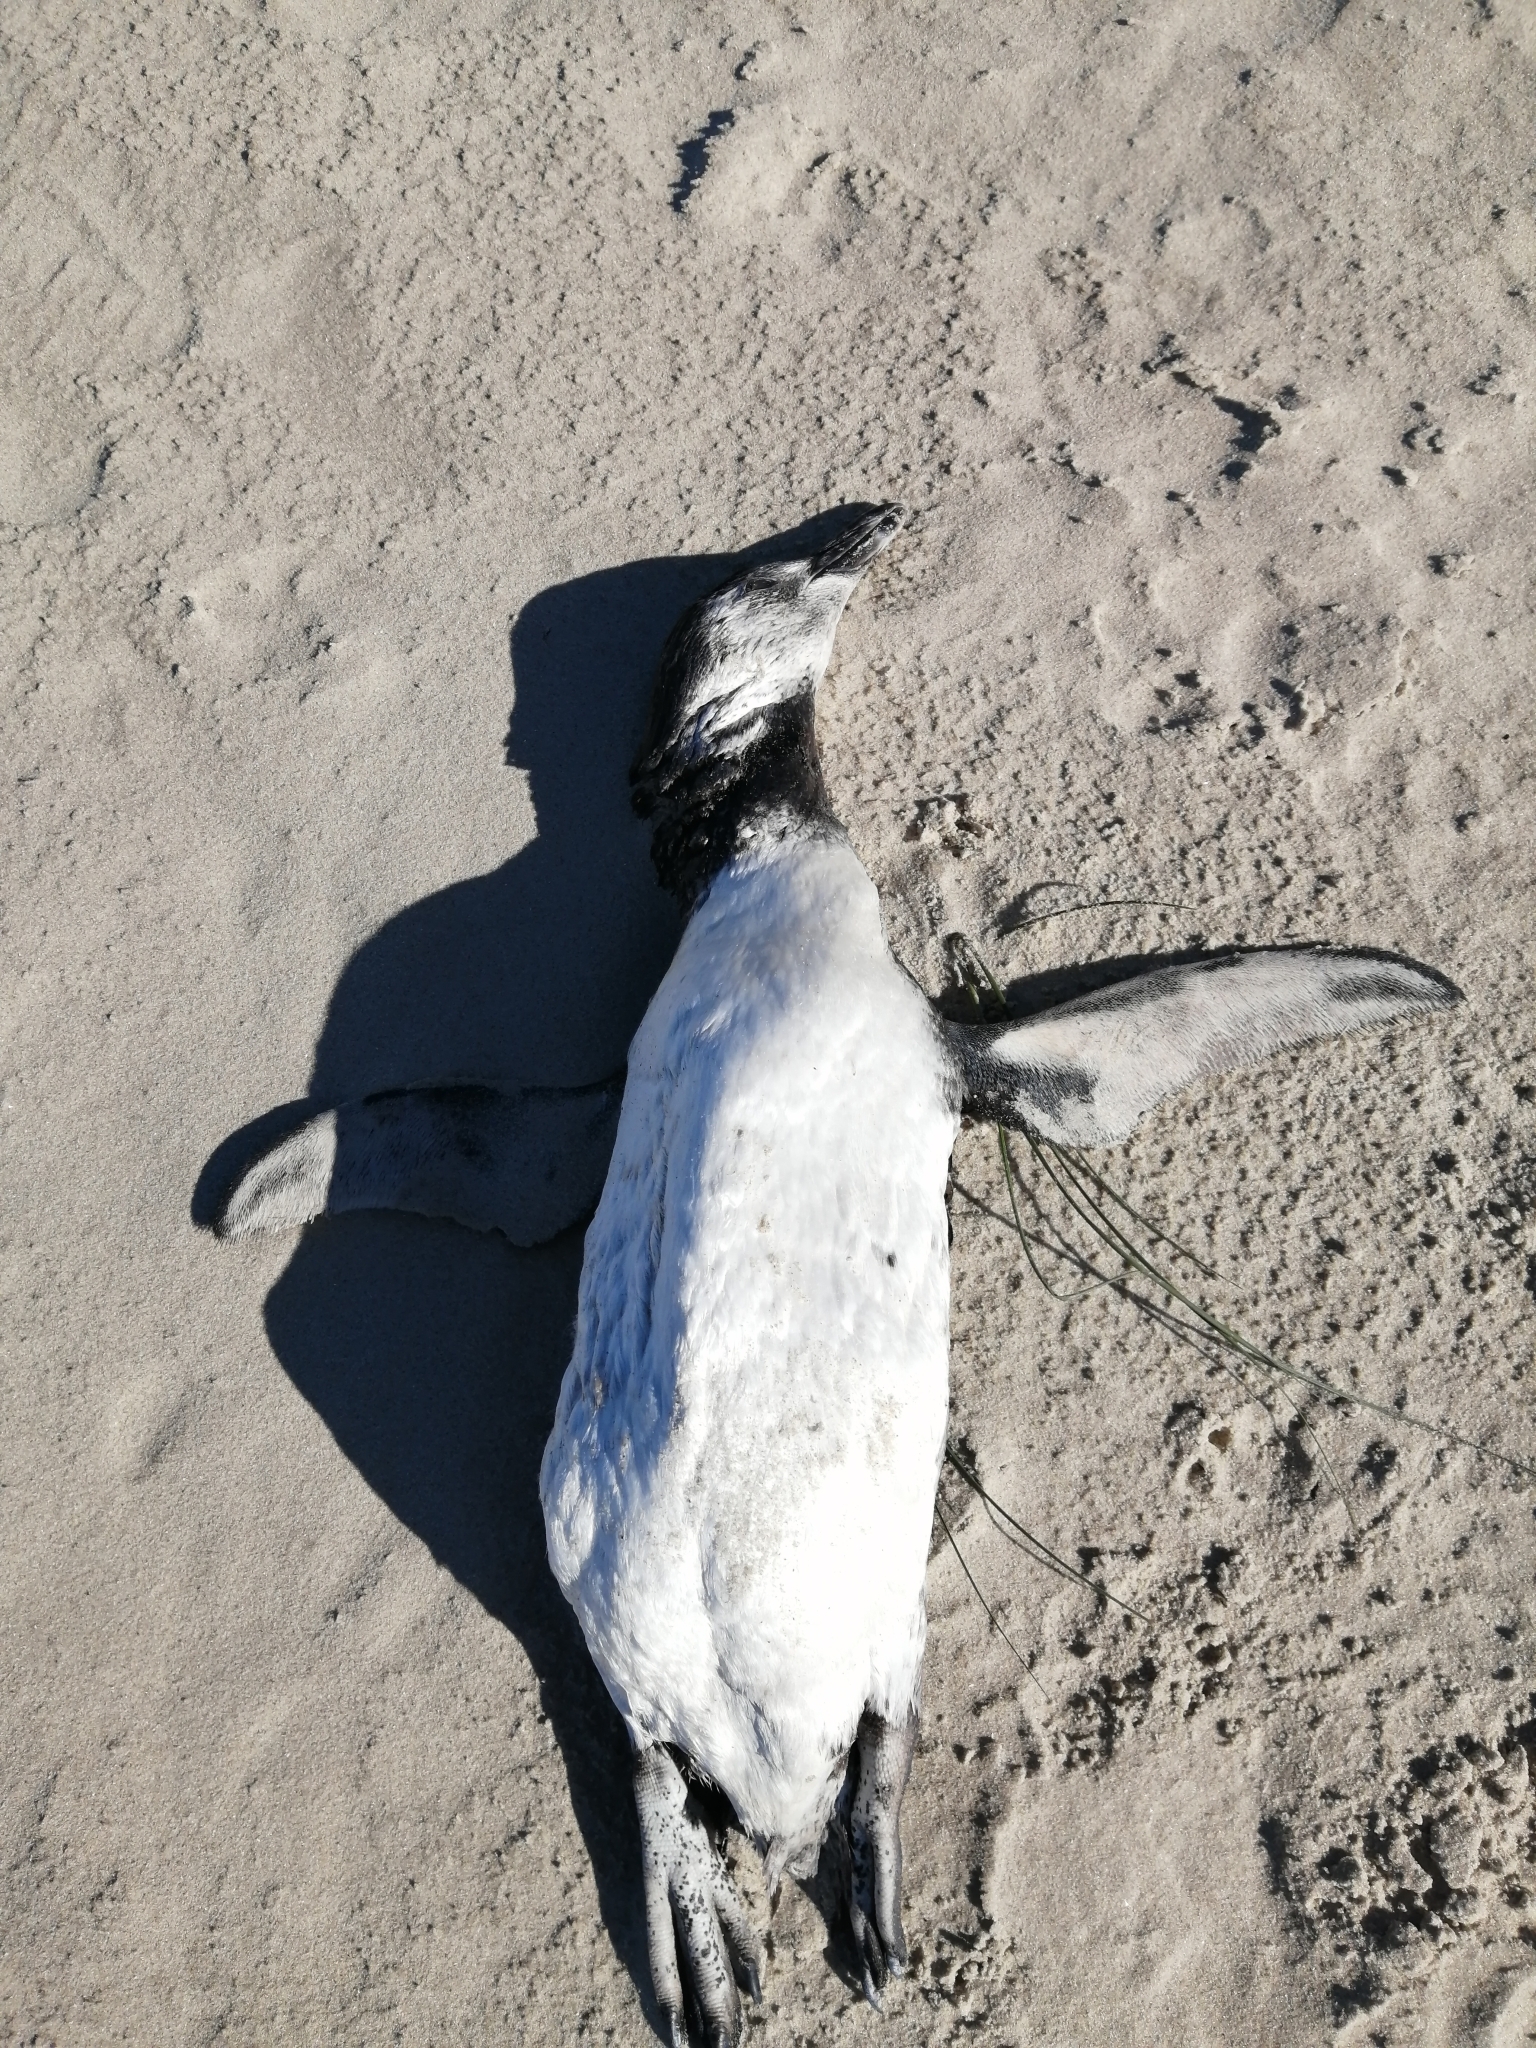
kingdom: Animalia
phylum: Chordata
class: Aves
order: Sphenisciformes
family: Spheniscidae
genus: Spheniscus
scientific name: Spheniscus magellanicus
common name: Magellanic penguin
